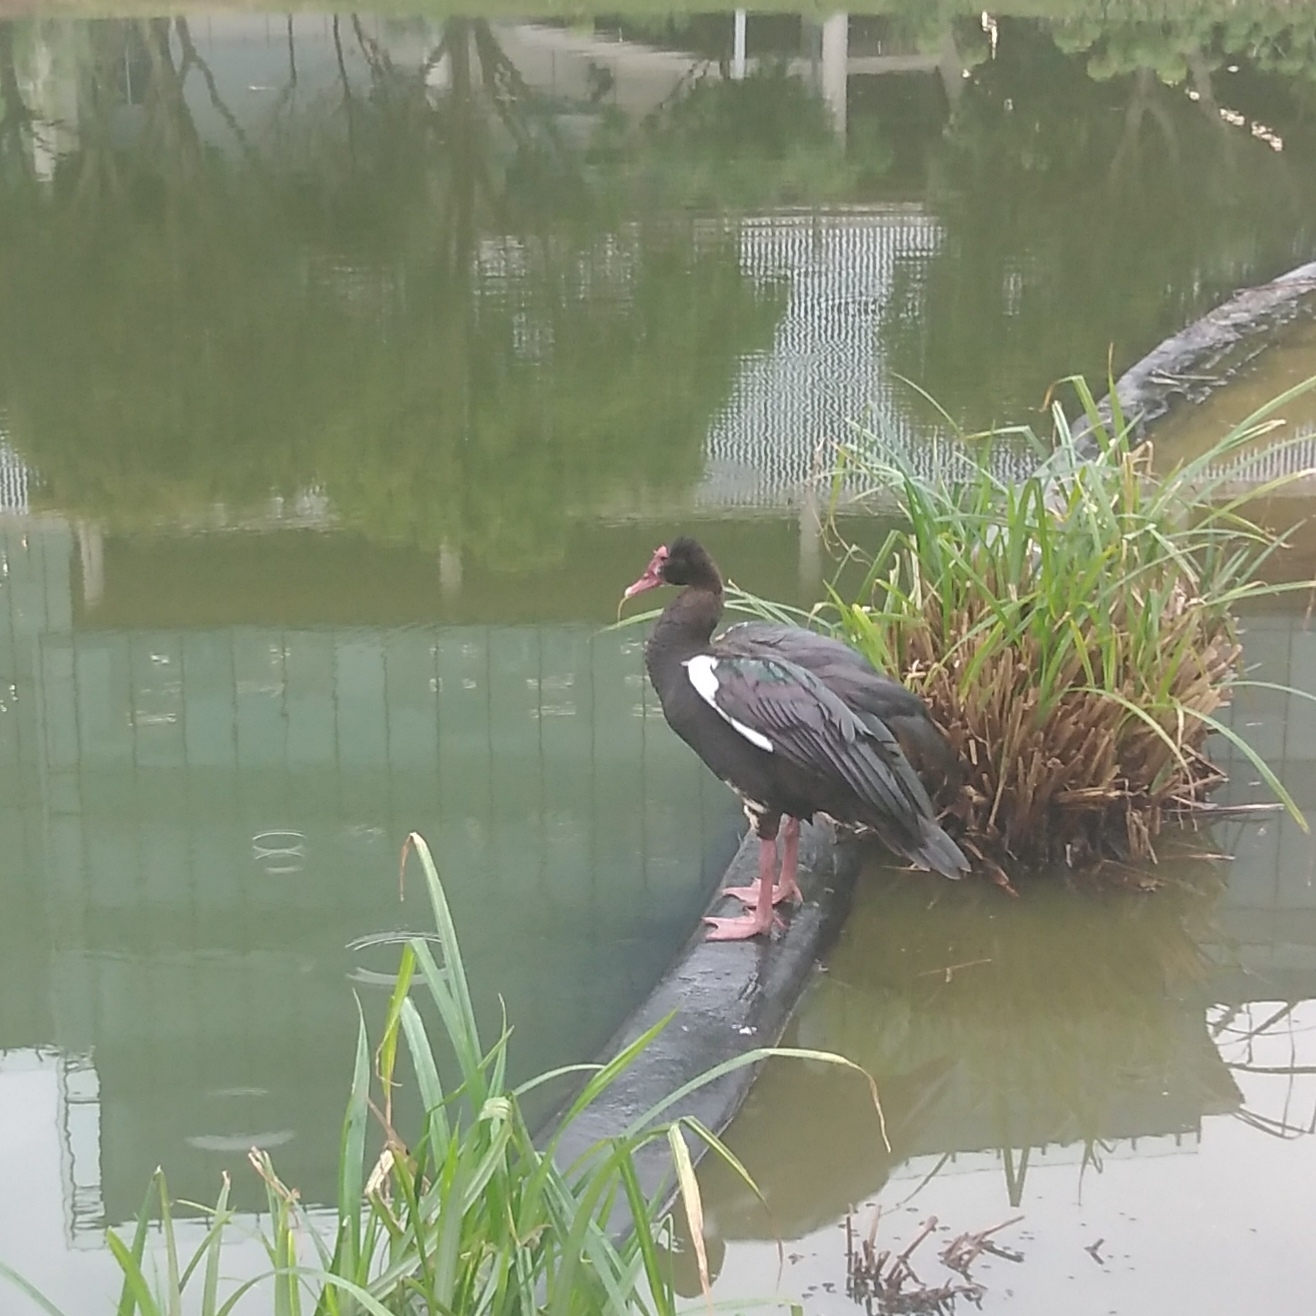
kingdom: Animalia
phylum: Chordata
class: Aves
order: Anseriformes
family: Anatidae
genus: Plectropterus
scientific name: Plectropterus gambensis
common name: Spur-winged goose
